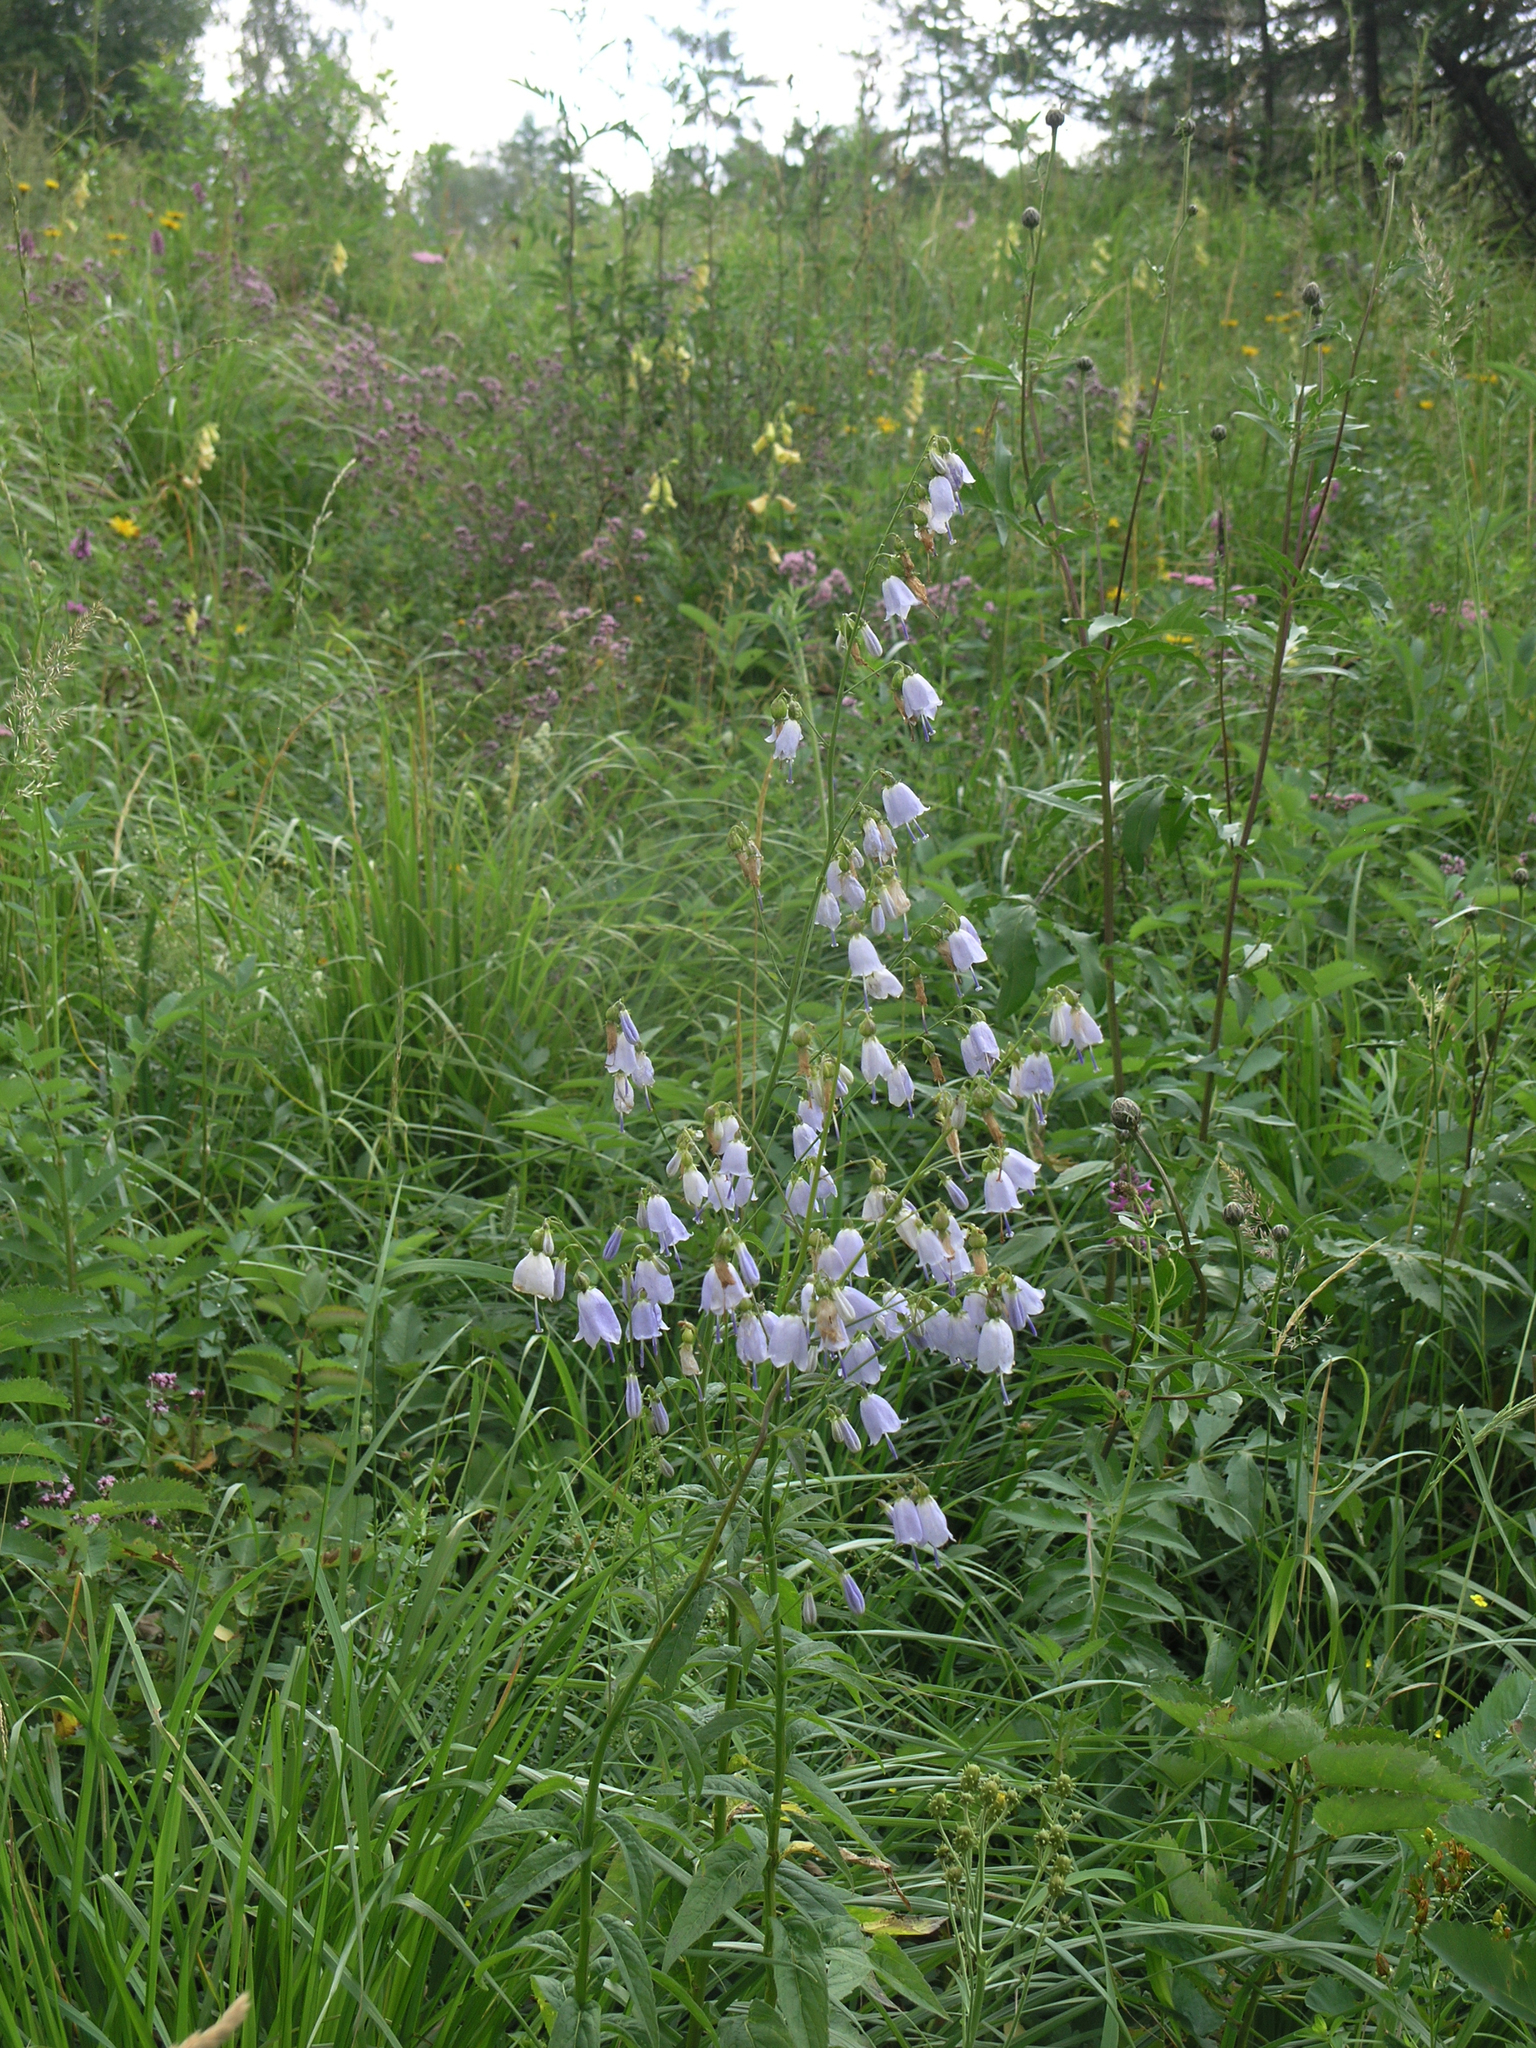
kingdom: Plantae
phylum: Tracheophyta
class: Magnoliopsida
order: Asterales
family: Campanulaceae
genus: Adenophora
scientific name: Adenophora liliifolia
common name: Lilyleaf ladybells
